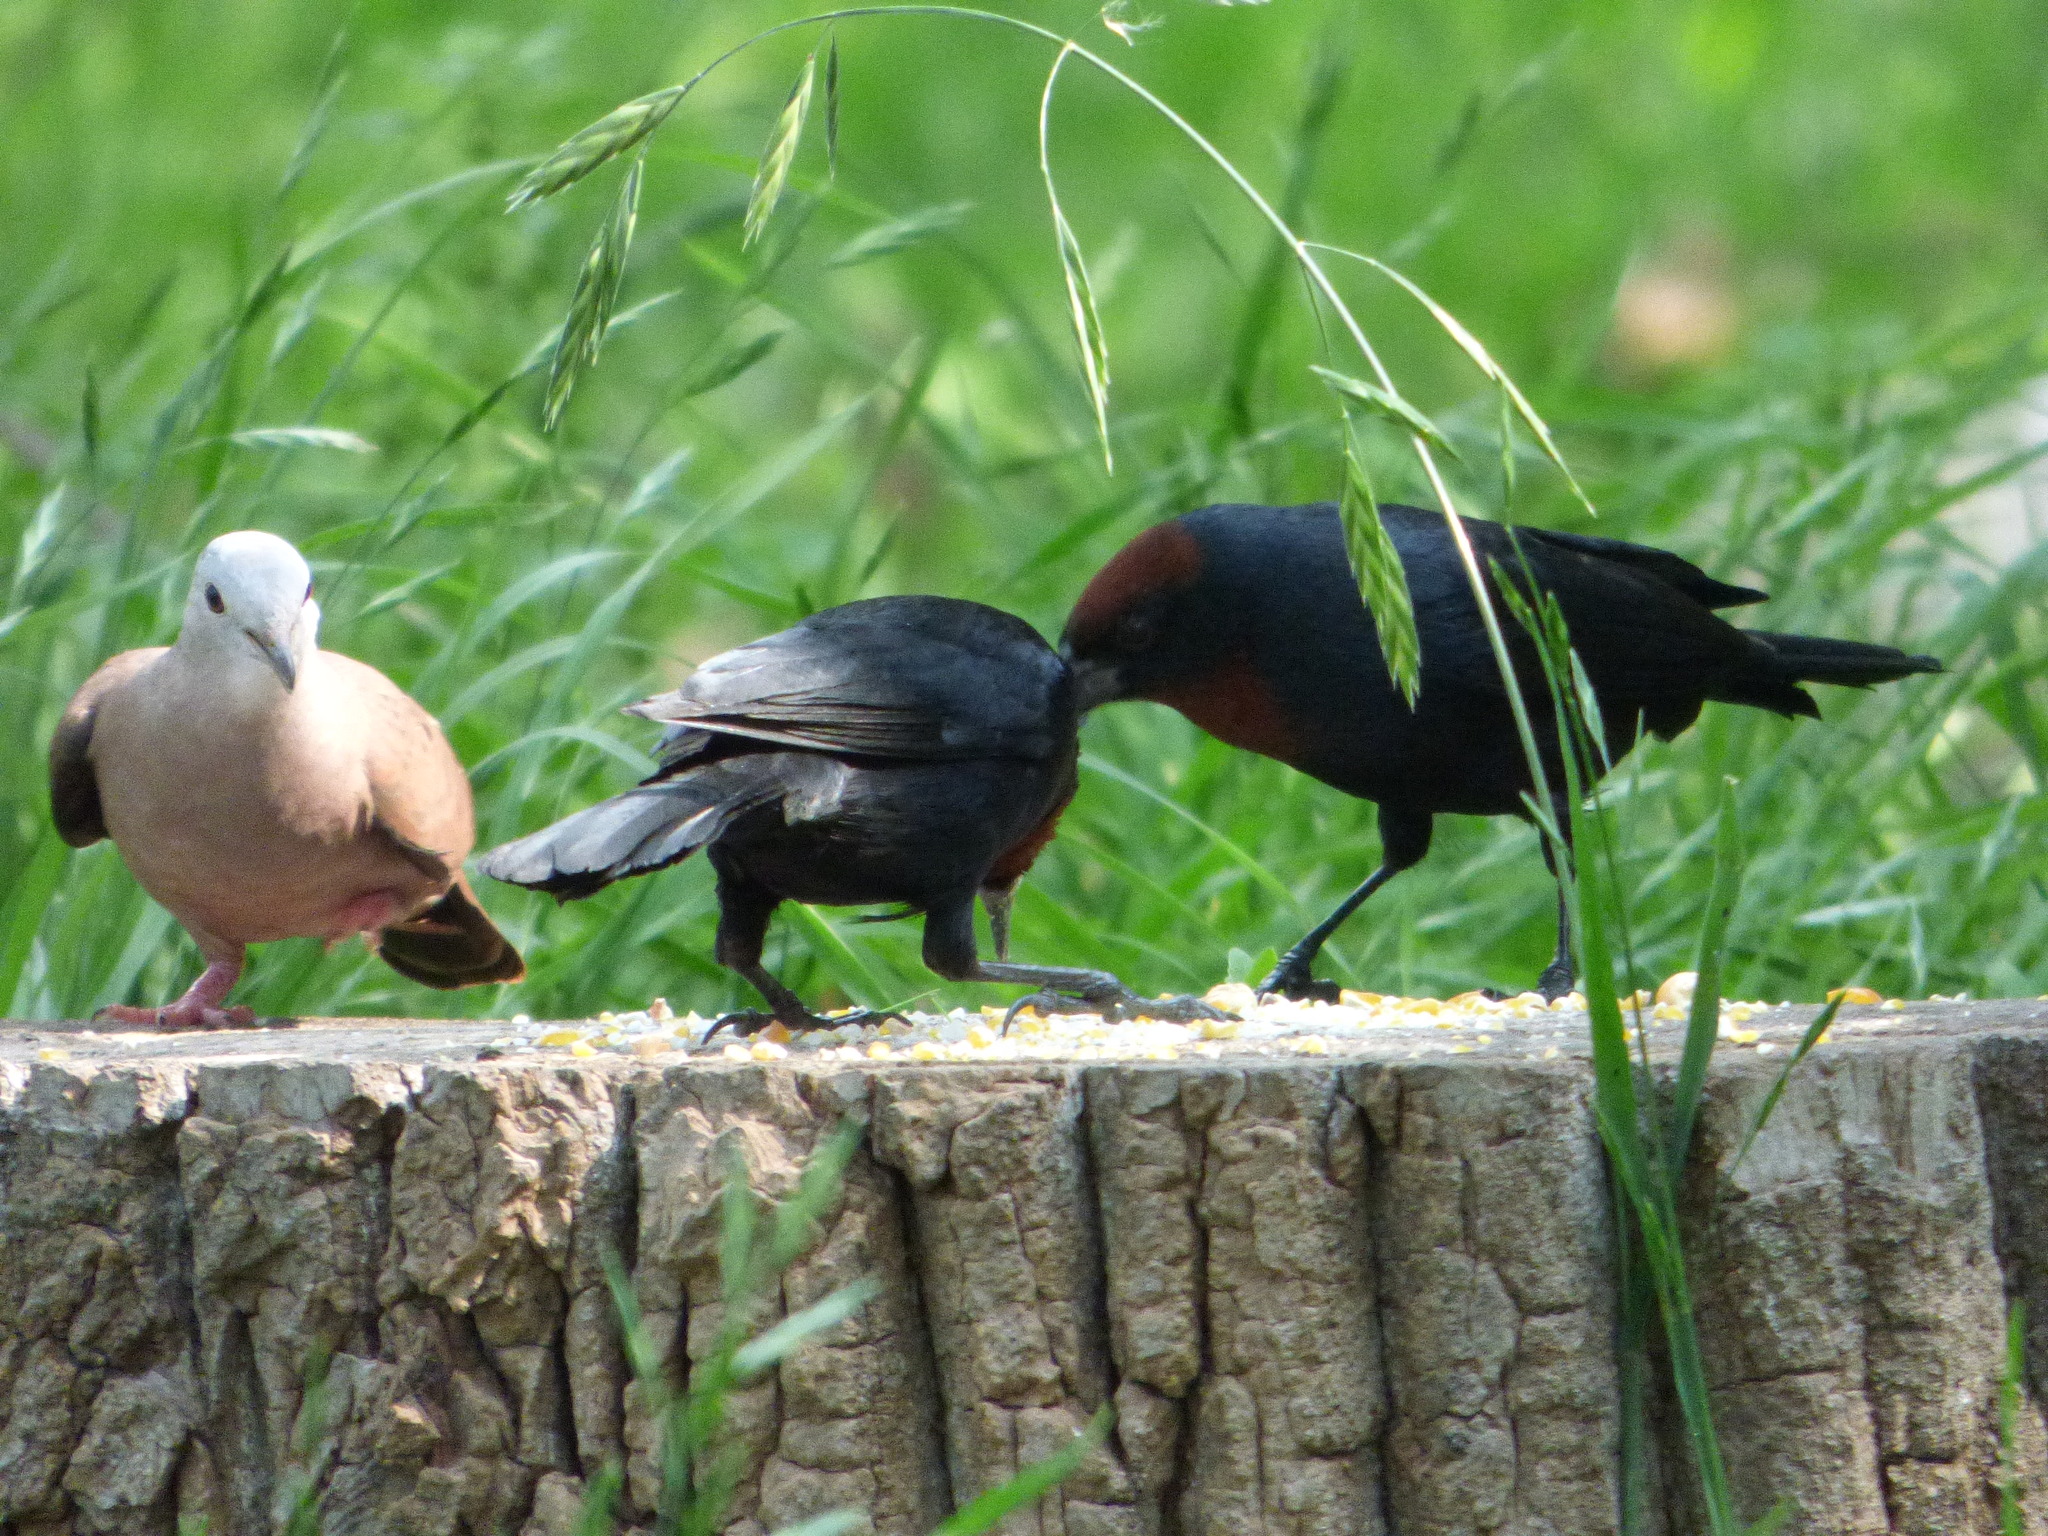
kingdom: Animalia
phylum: Chordata
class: Aves
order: Columbiformes
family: Columbidae
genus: Columbina
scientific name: Columbina talpacoti
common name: Ruddy ground dove
